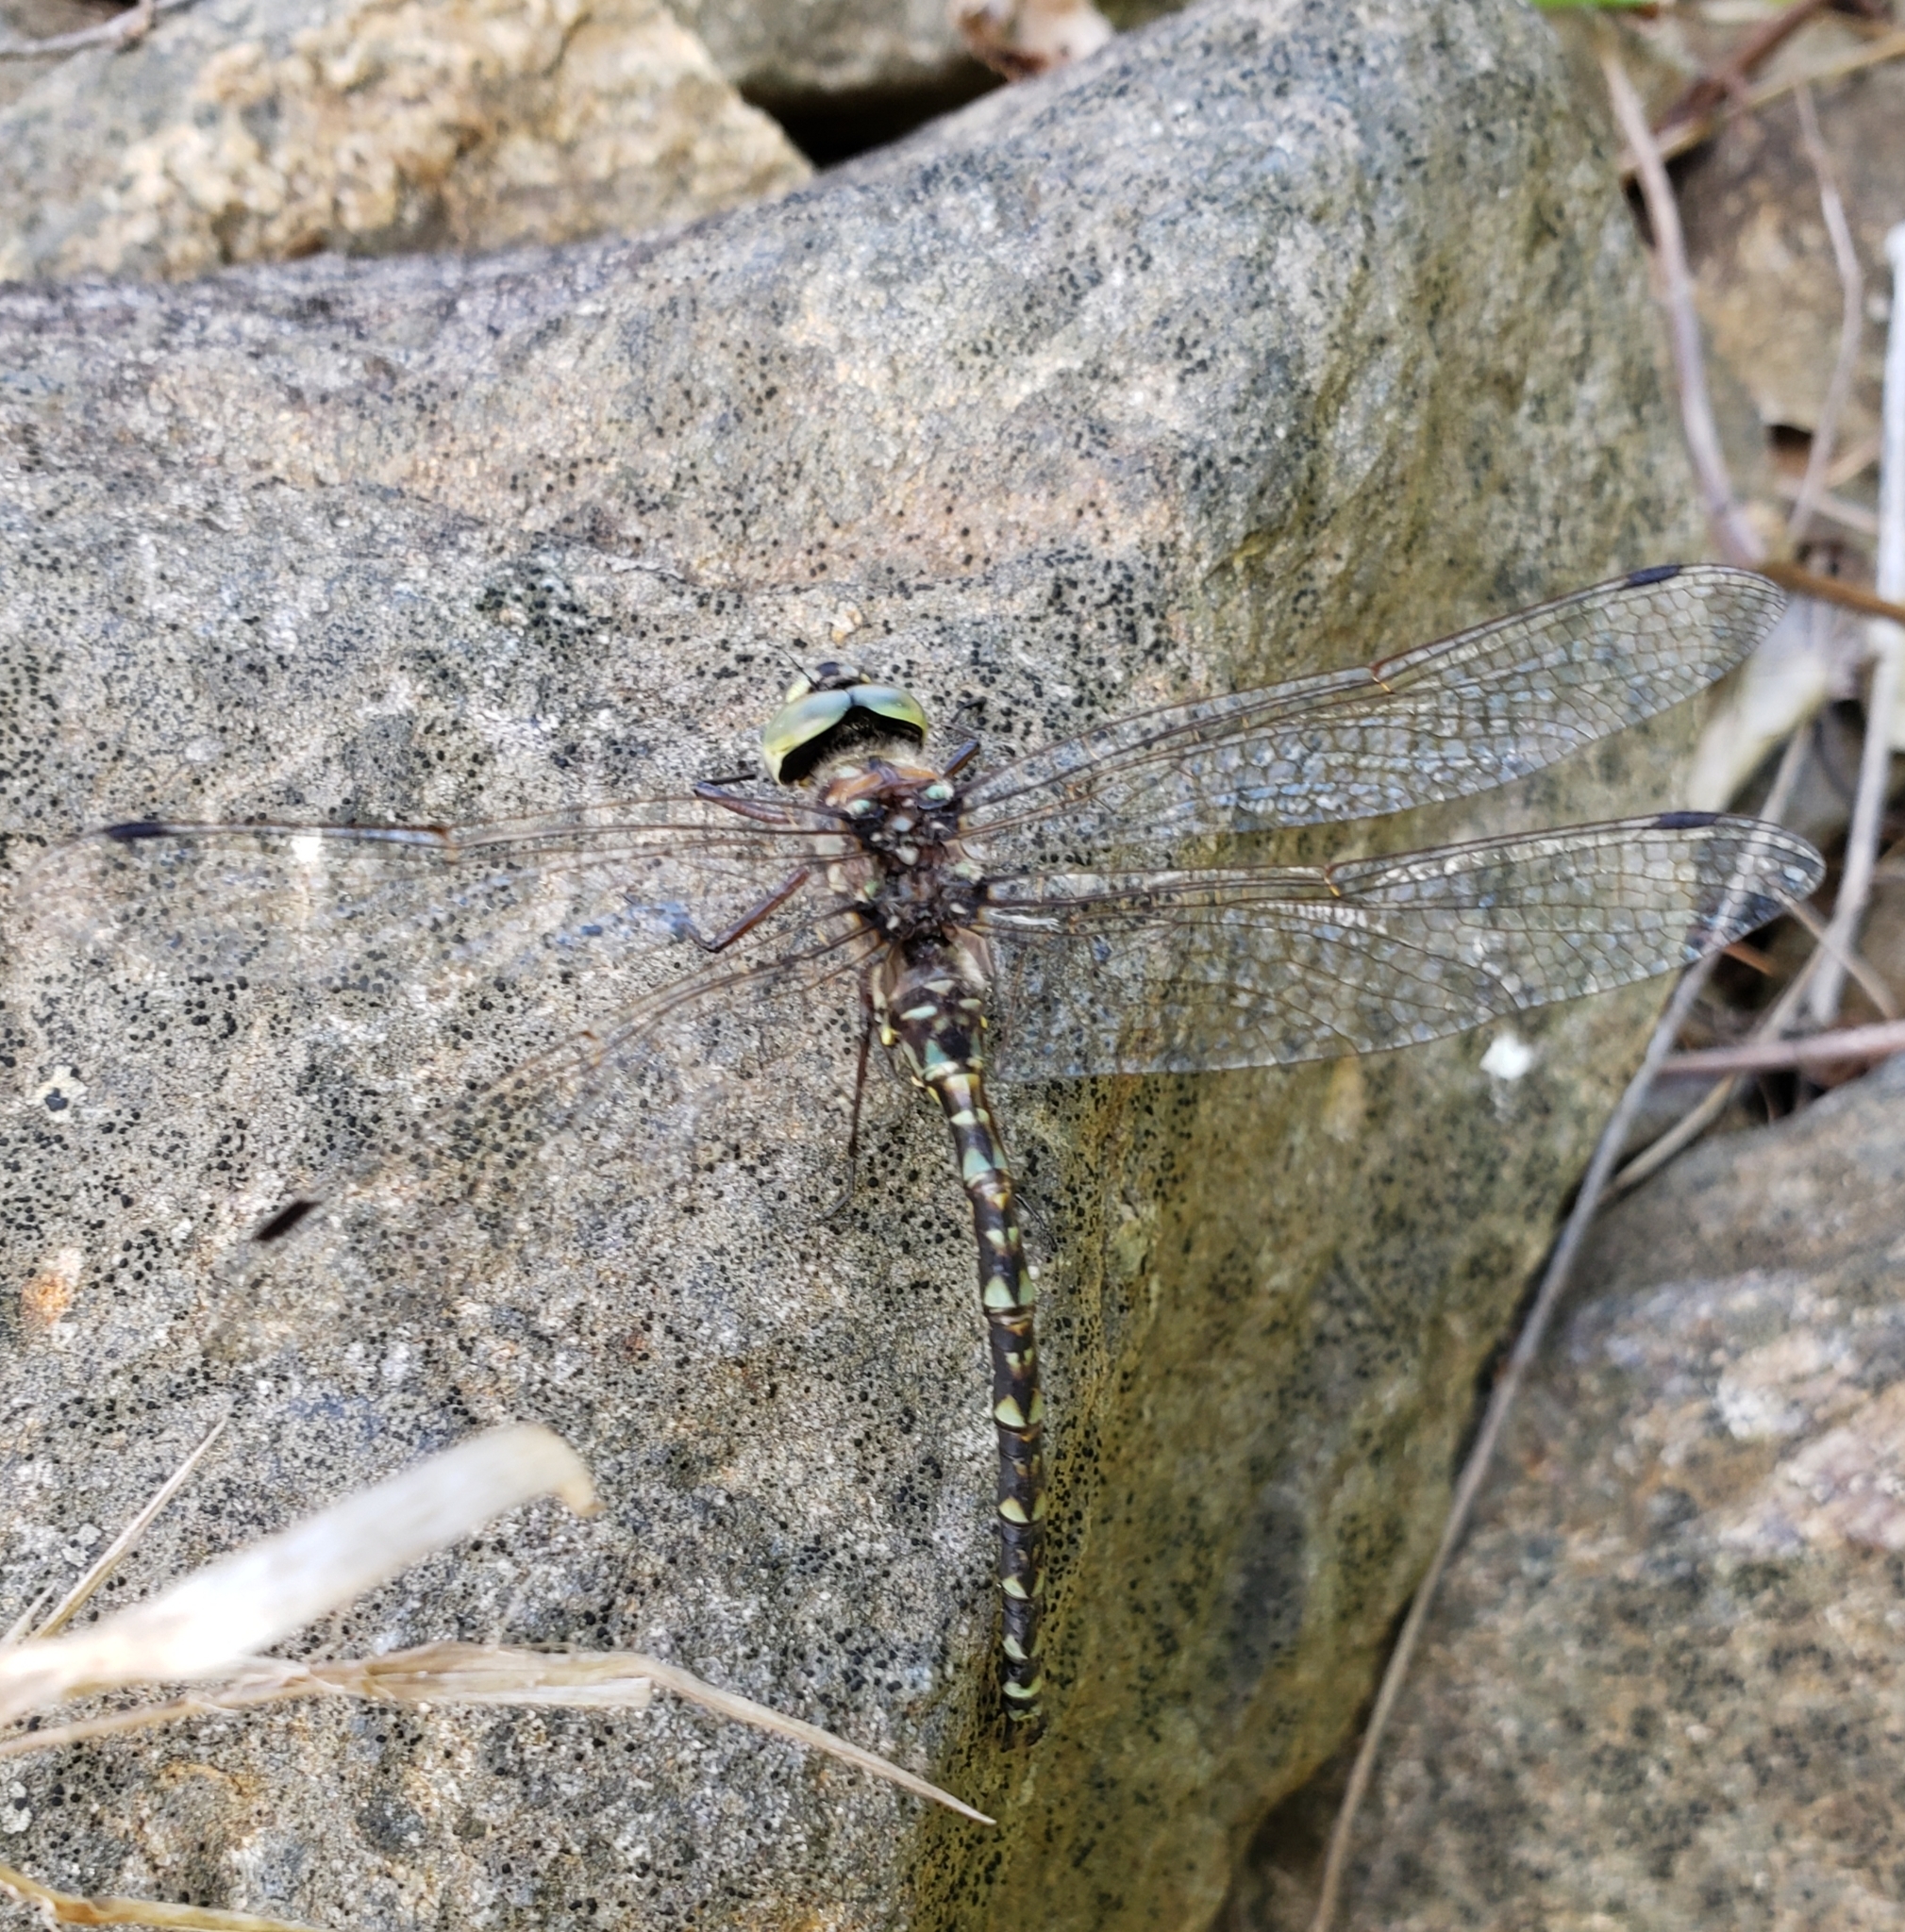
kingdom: Animalia
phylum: Arthropoda
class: Insecta
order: Odonata
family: Aeshnidae
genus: Gomphaeschna
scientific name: Gomphaeschna furcillata
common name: Harlequin darner
